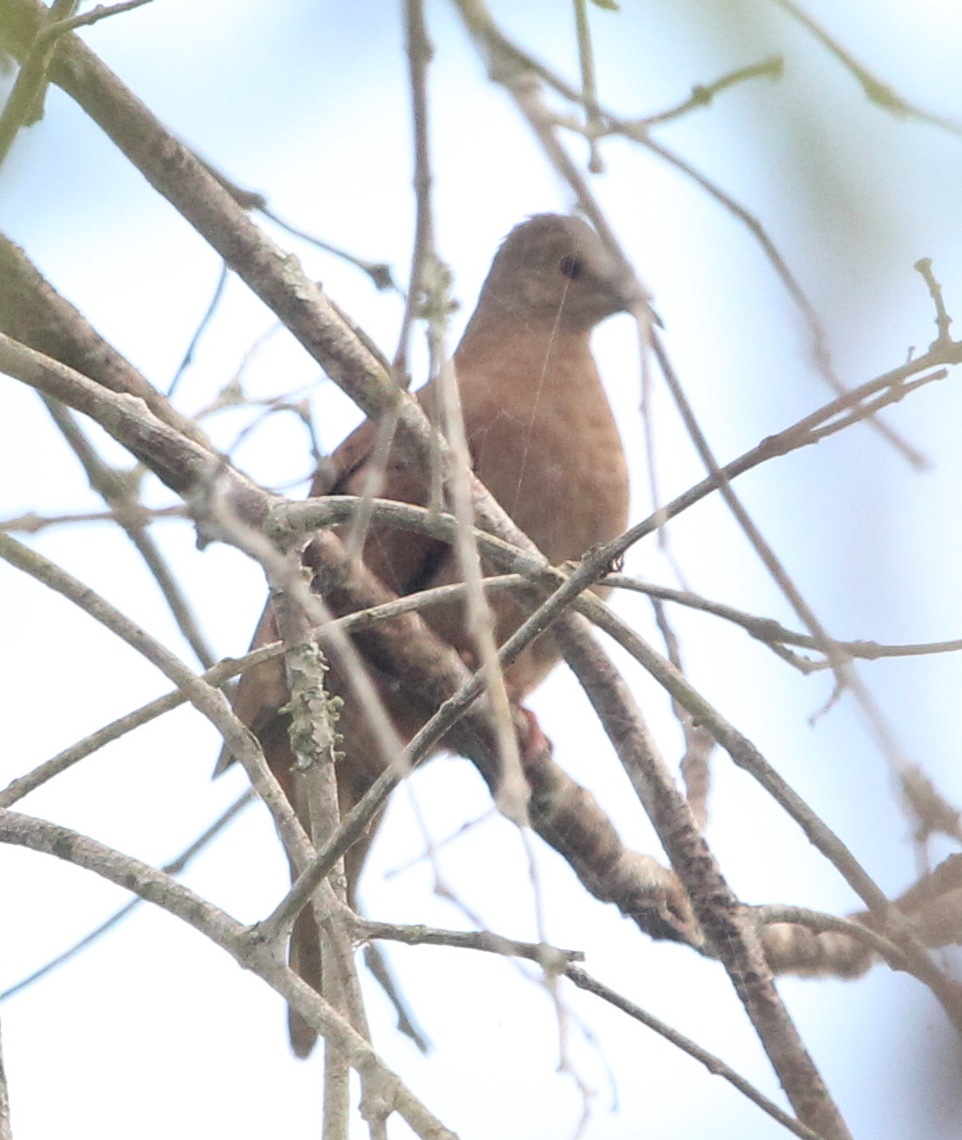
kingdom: Animalia
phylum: Chordata
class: Aves
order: Columbiformes
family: Columbidae
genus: Columbina
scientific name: Columbina talpacoti
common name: Ruddy ground dove
